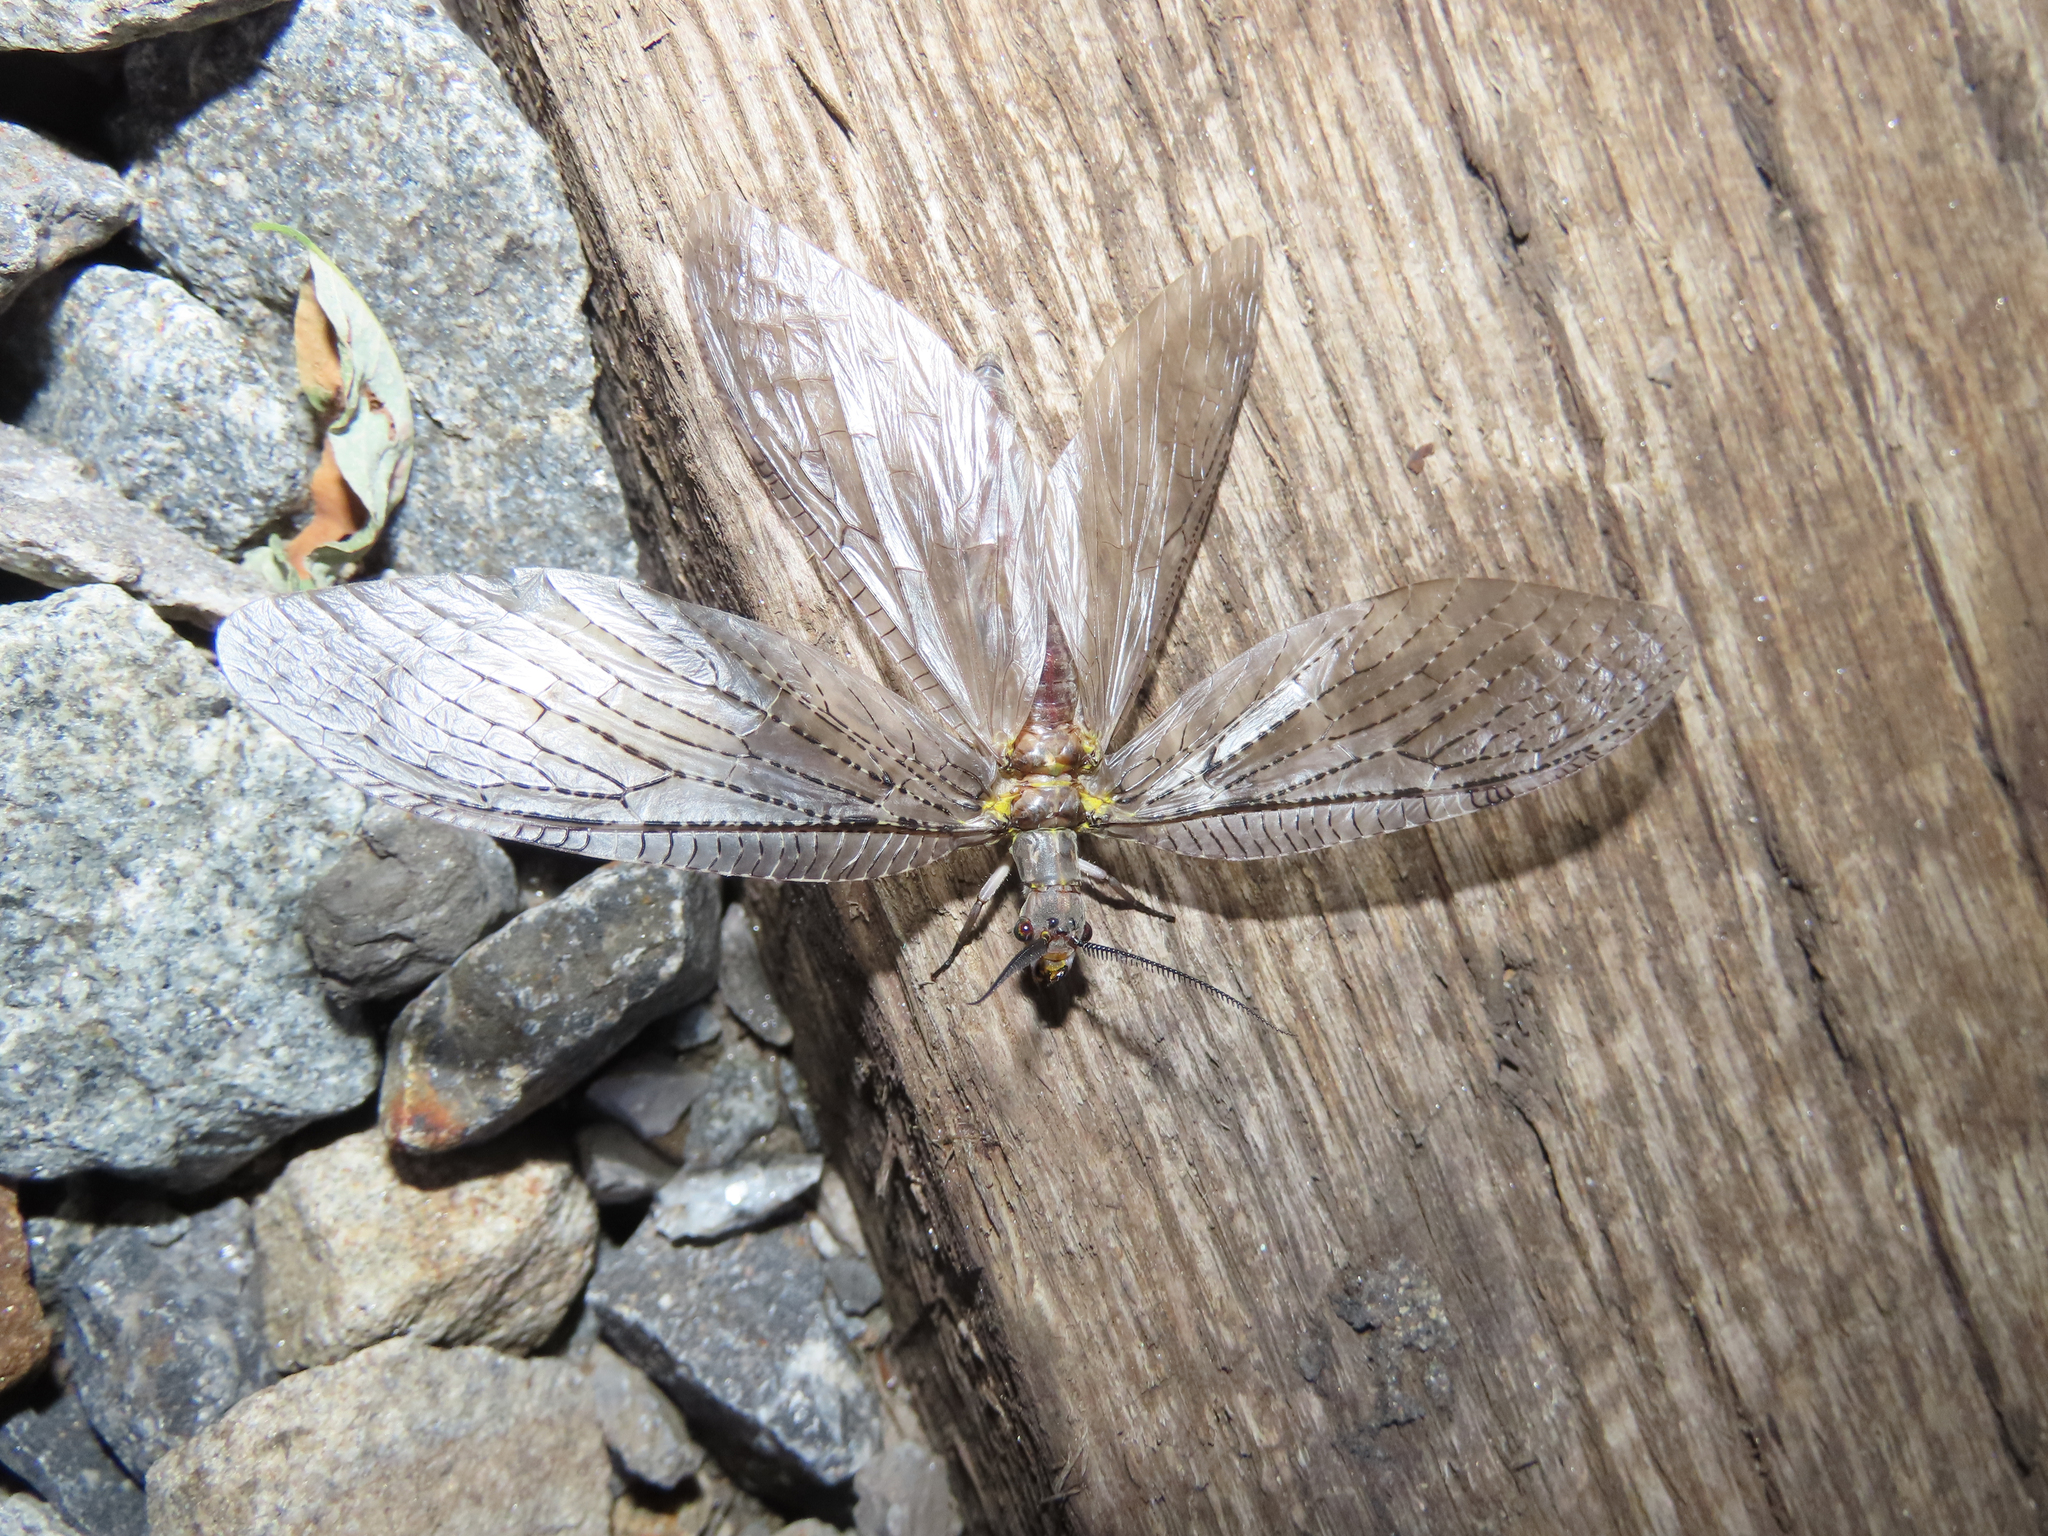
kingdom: Animalia
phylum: Arthropoda
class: Insecta
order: Megaloptera
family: Corydalidae
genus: Chauliodes
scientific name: Chauliodes pectinicornis
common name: Summer fishfly
